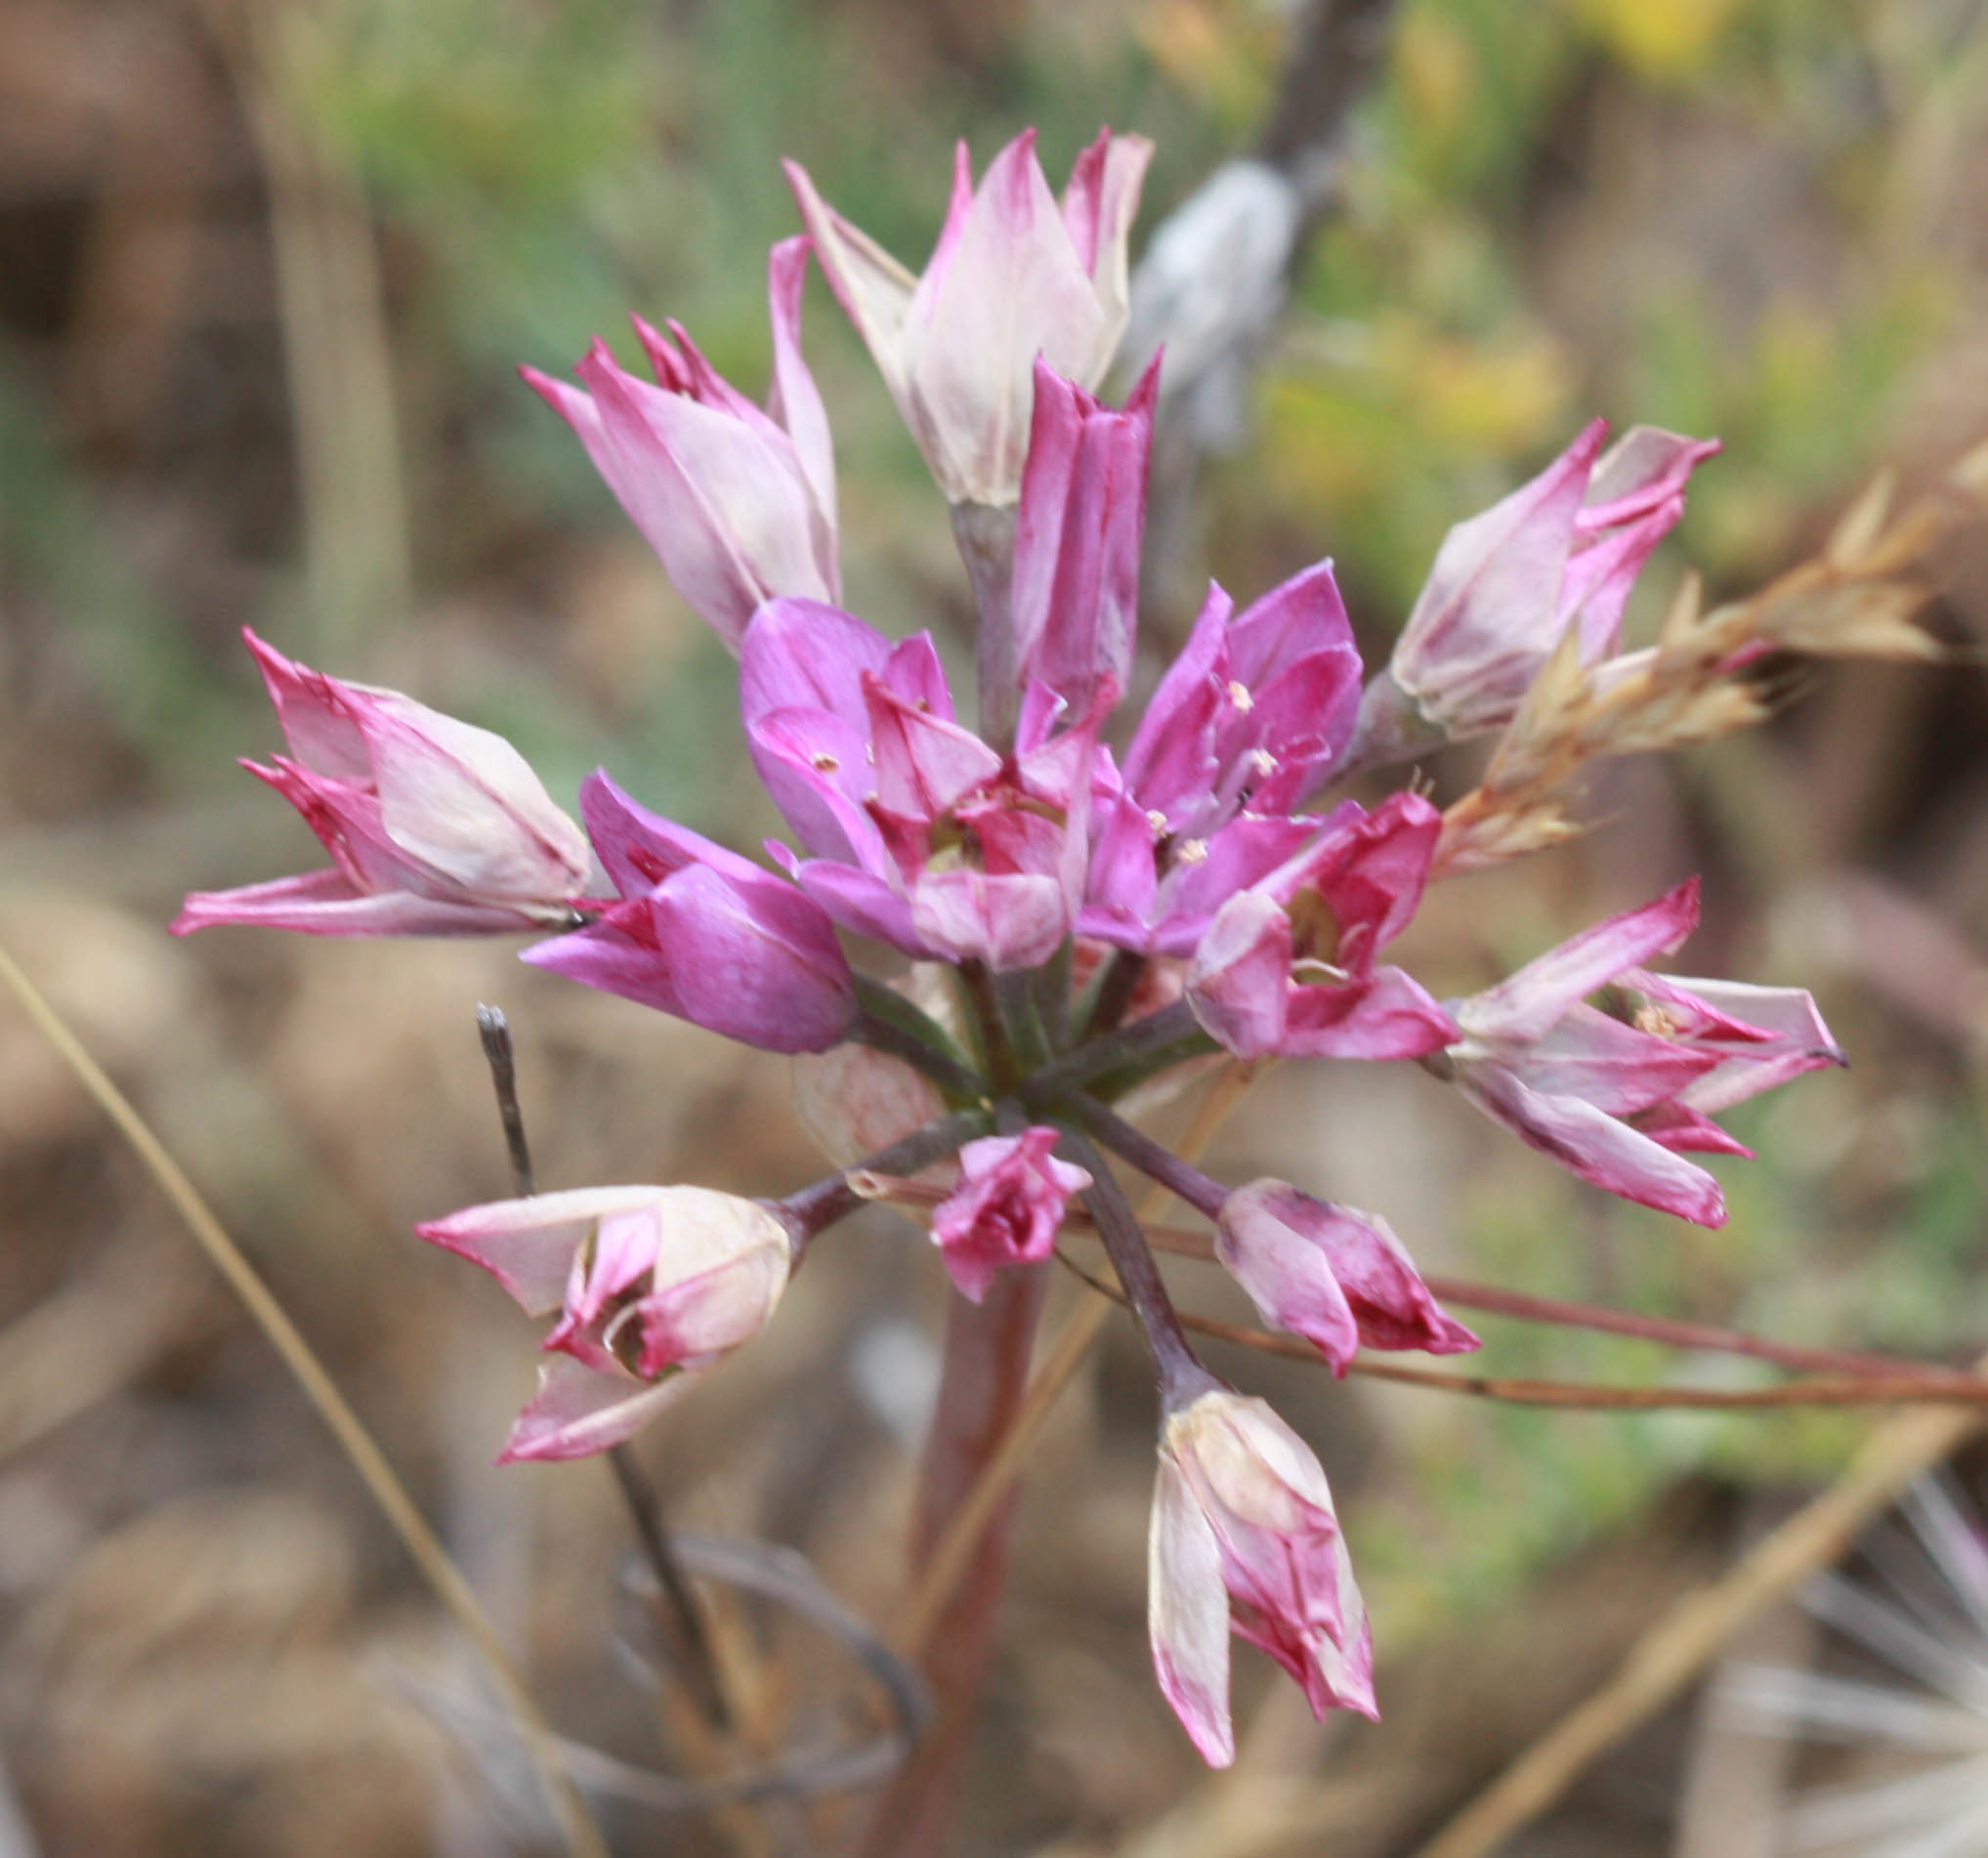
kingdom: Plantae
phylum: Tracheophyta
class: Liliopsida
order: Asparagales
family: Amaryllidaceae
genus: Allium
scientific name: Allium dichlamydeum
